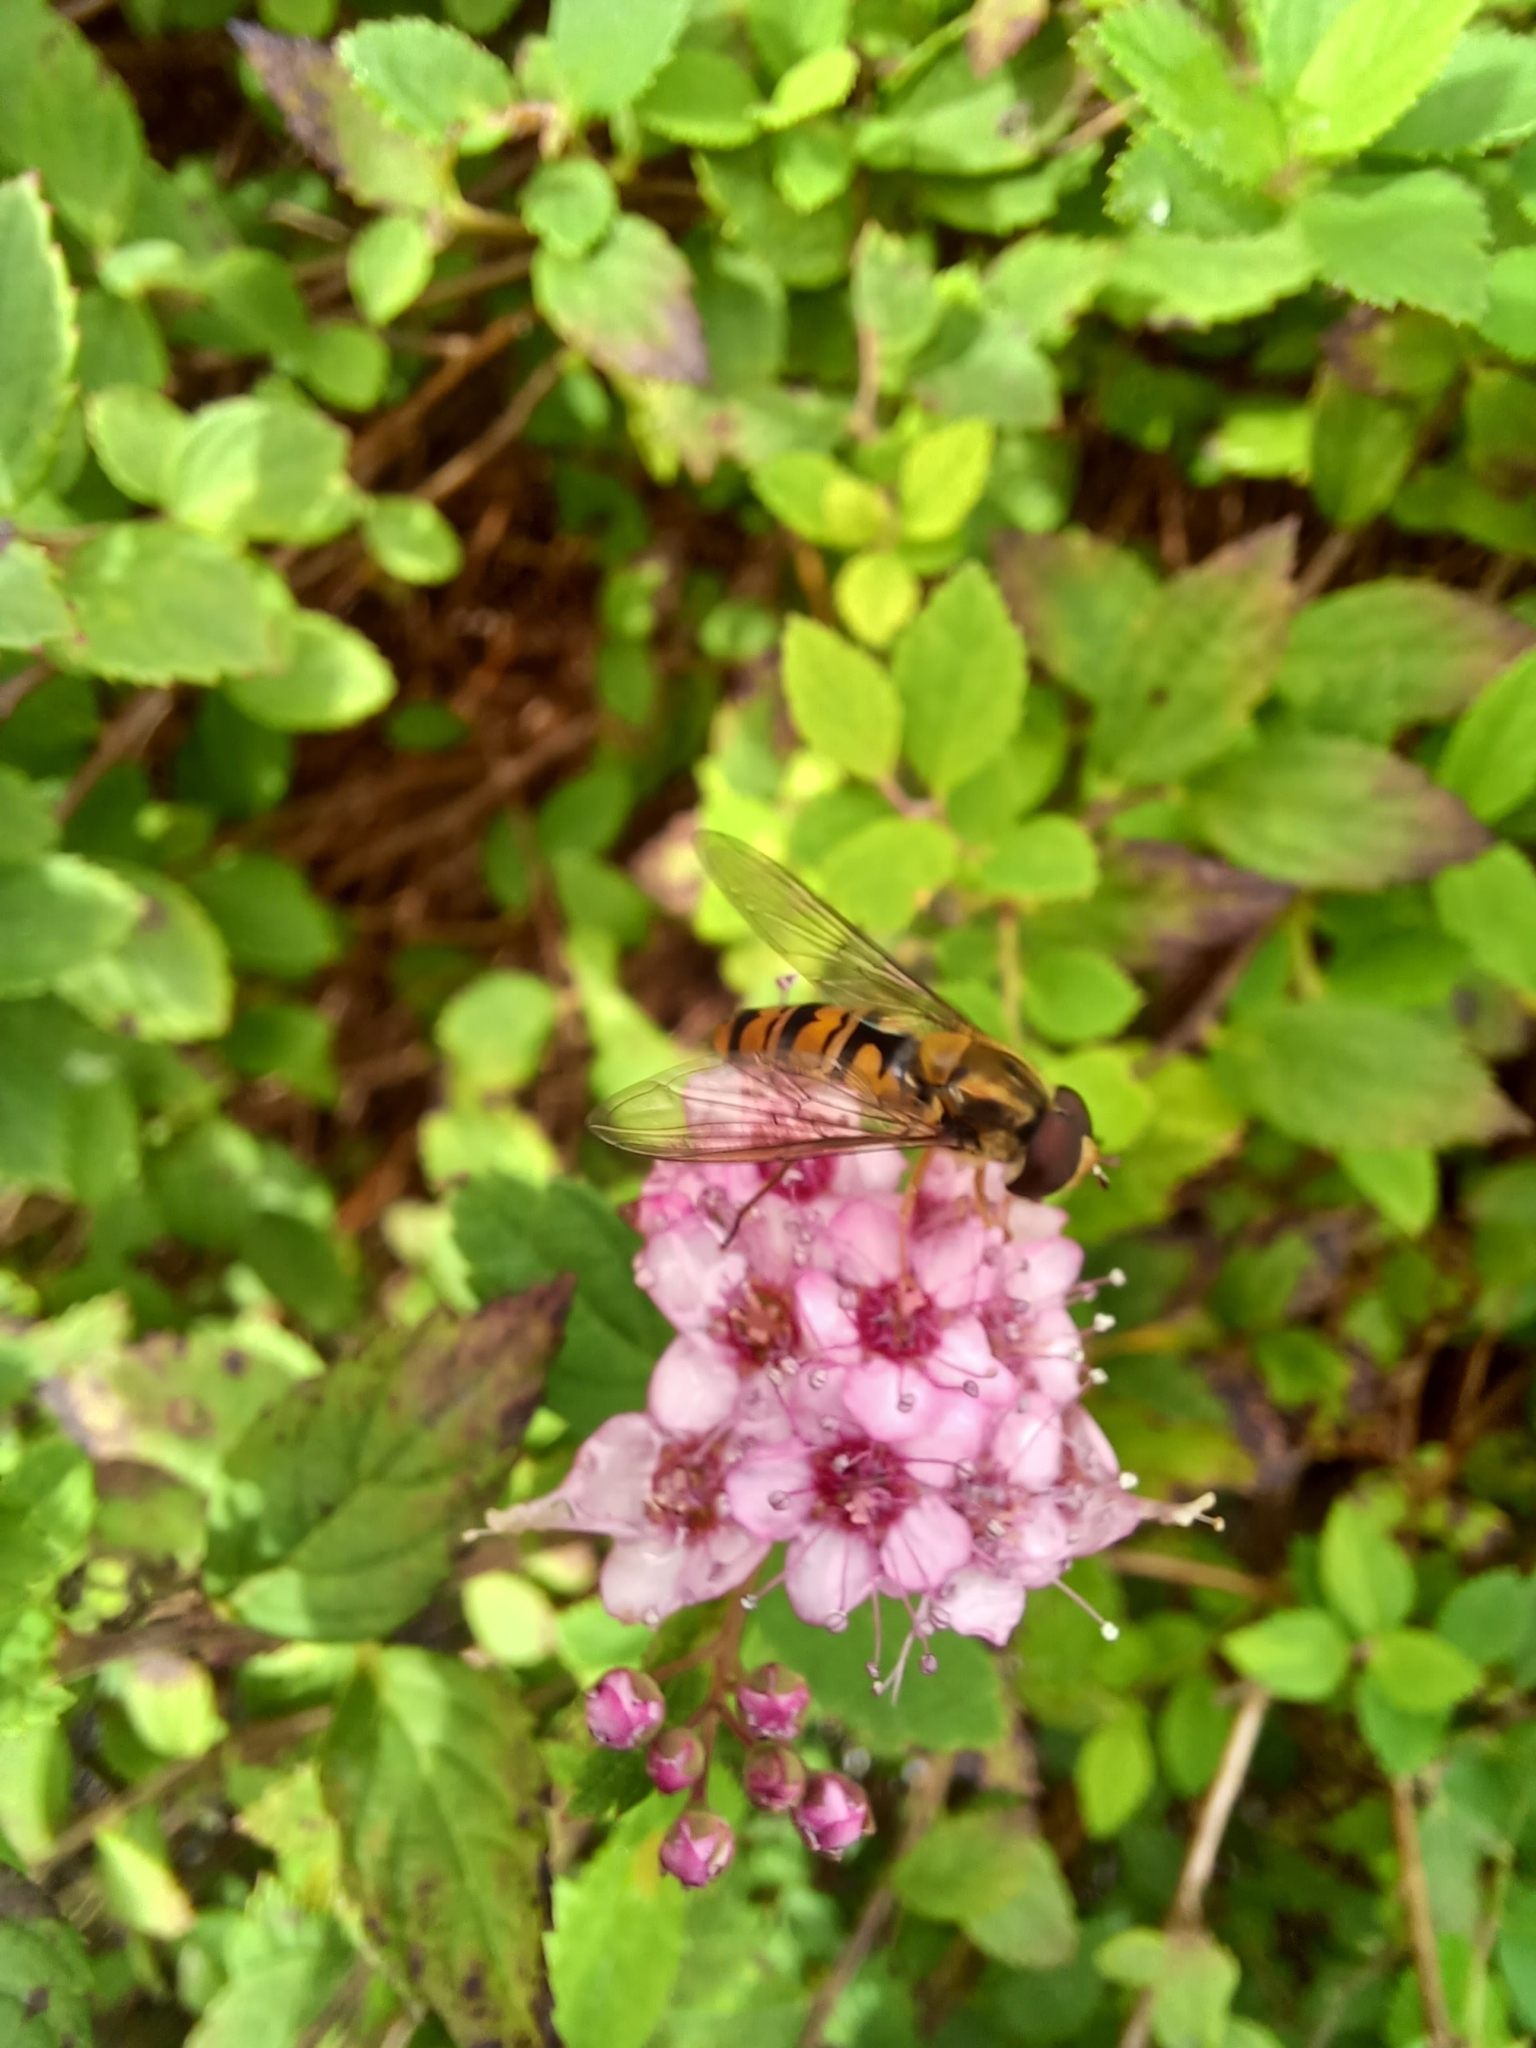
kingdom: Animalia
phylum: Arthropoda
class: Insecta
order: Diptera
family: Syrphidae
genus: Episyrphus
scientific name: Episyrphus balteatus
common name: Marmalade hoverfly
